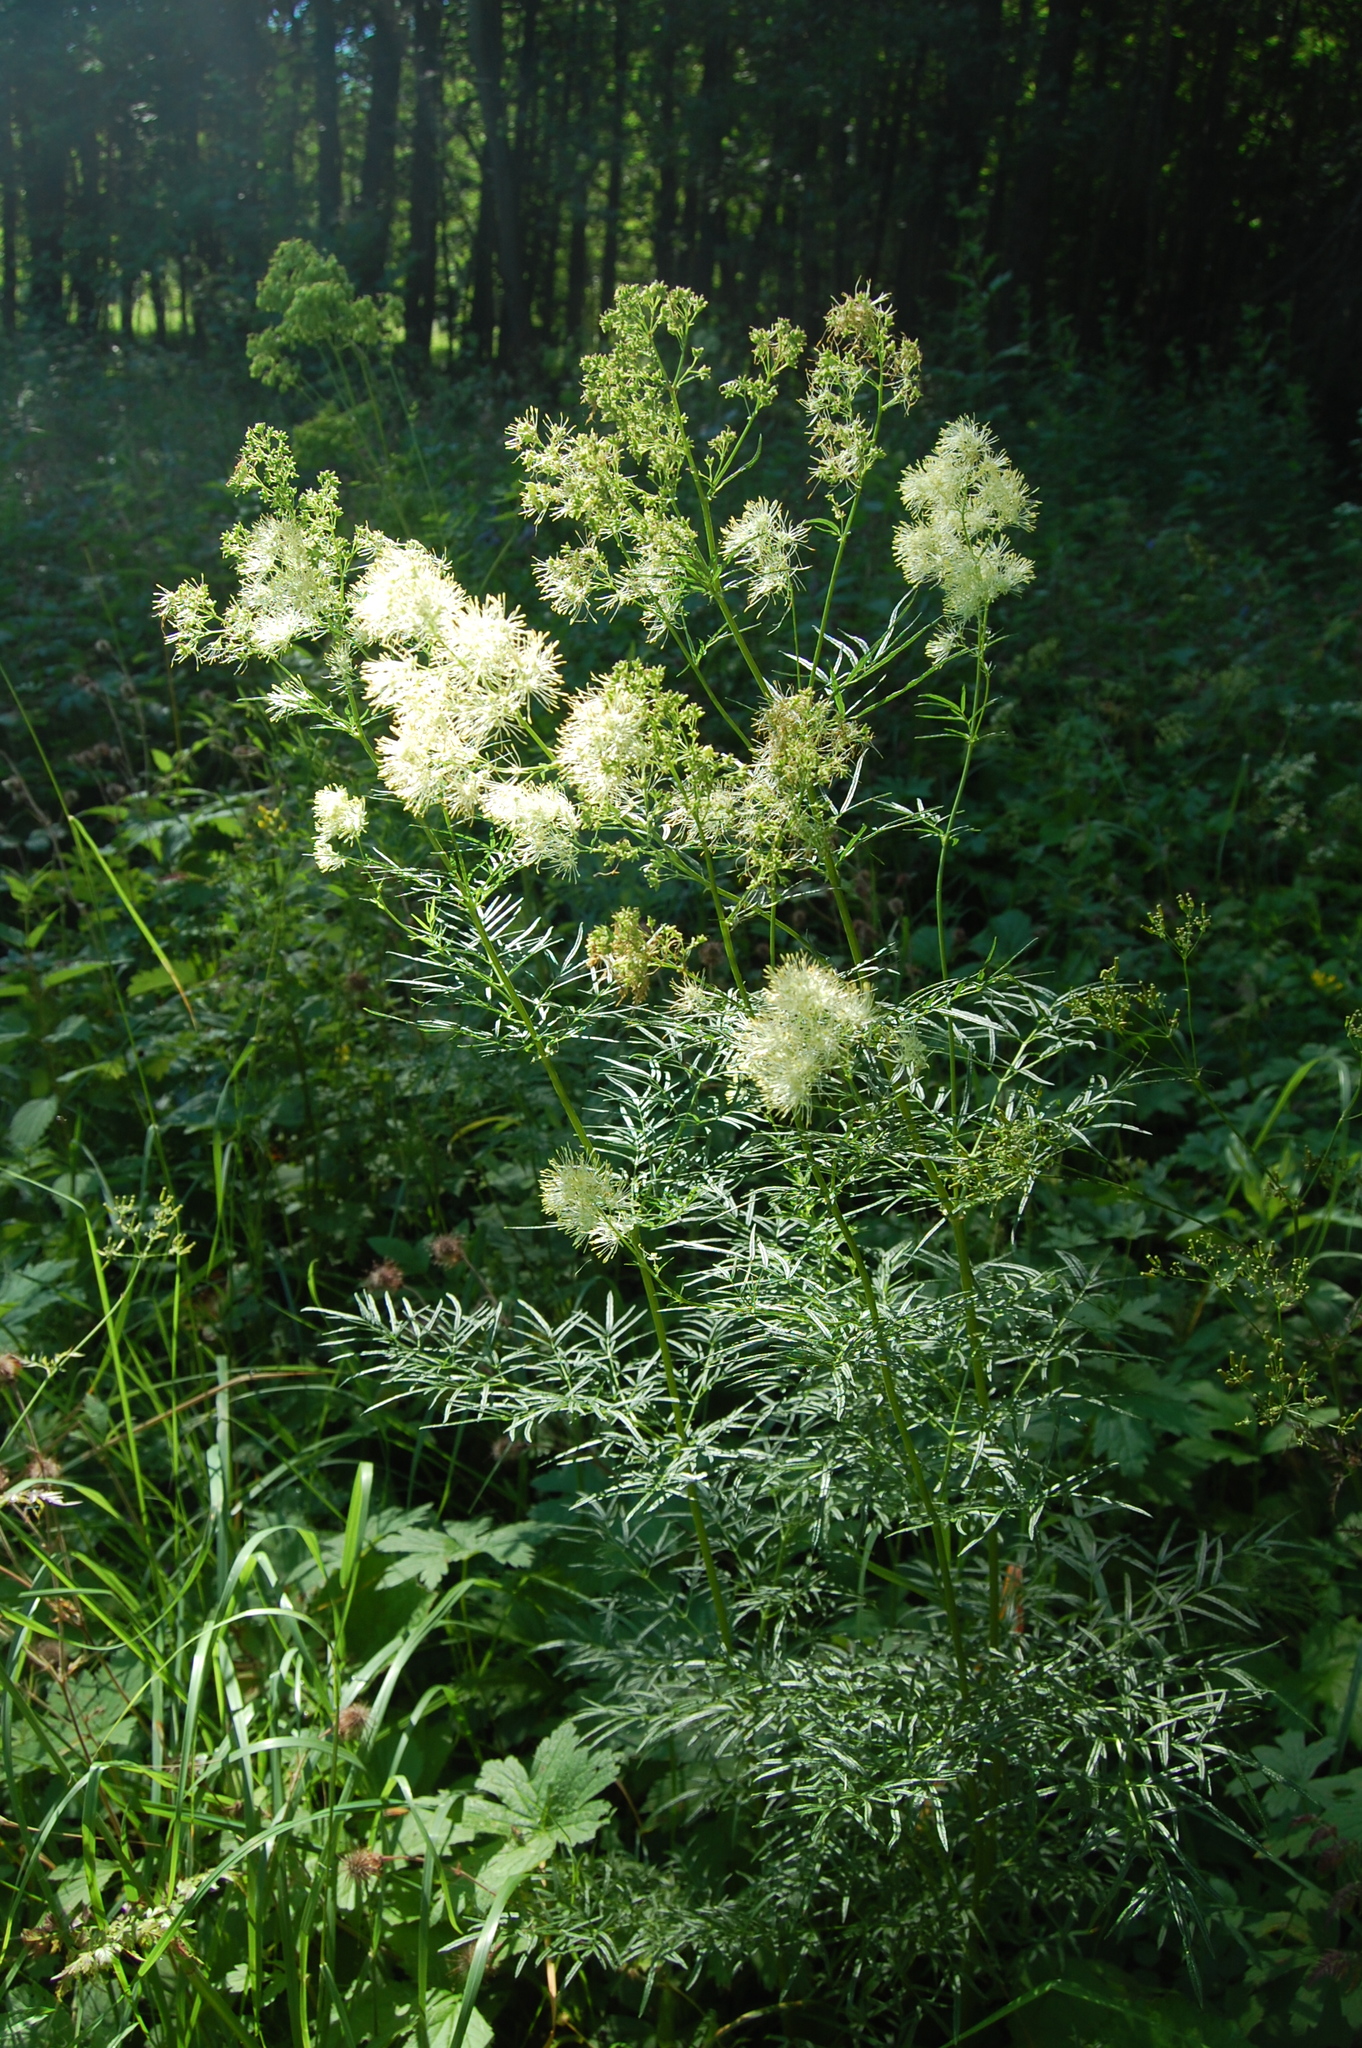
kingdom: Plantae
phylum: Tracheophyta
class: Magnoliopsida
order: Ranunculales
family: Ranunculaceae
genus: Thalictrum
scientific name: Thalictrum lucidum
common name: Shining meadow-rue
